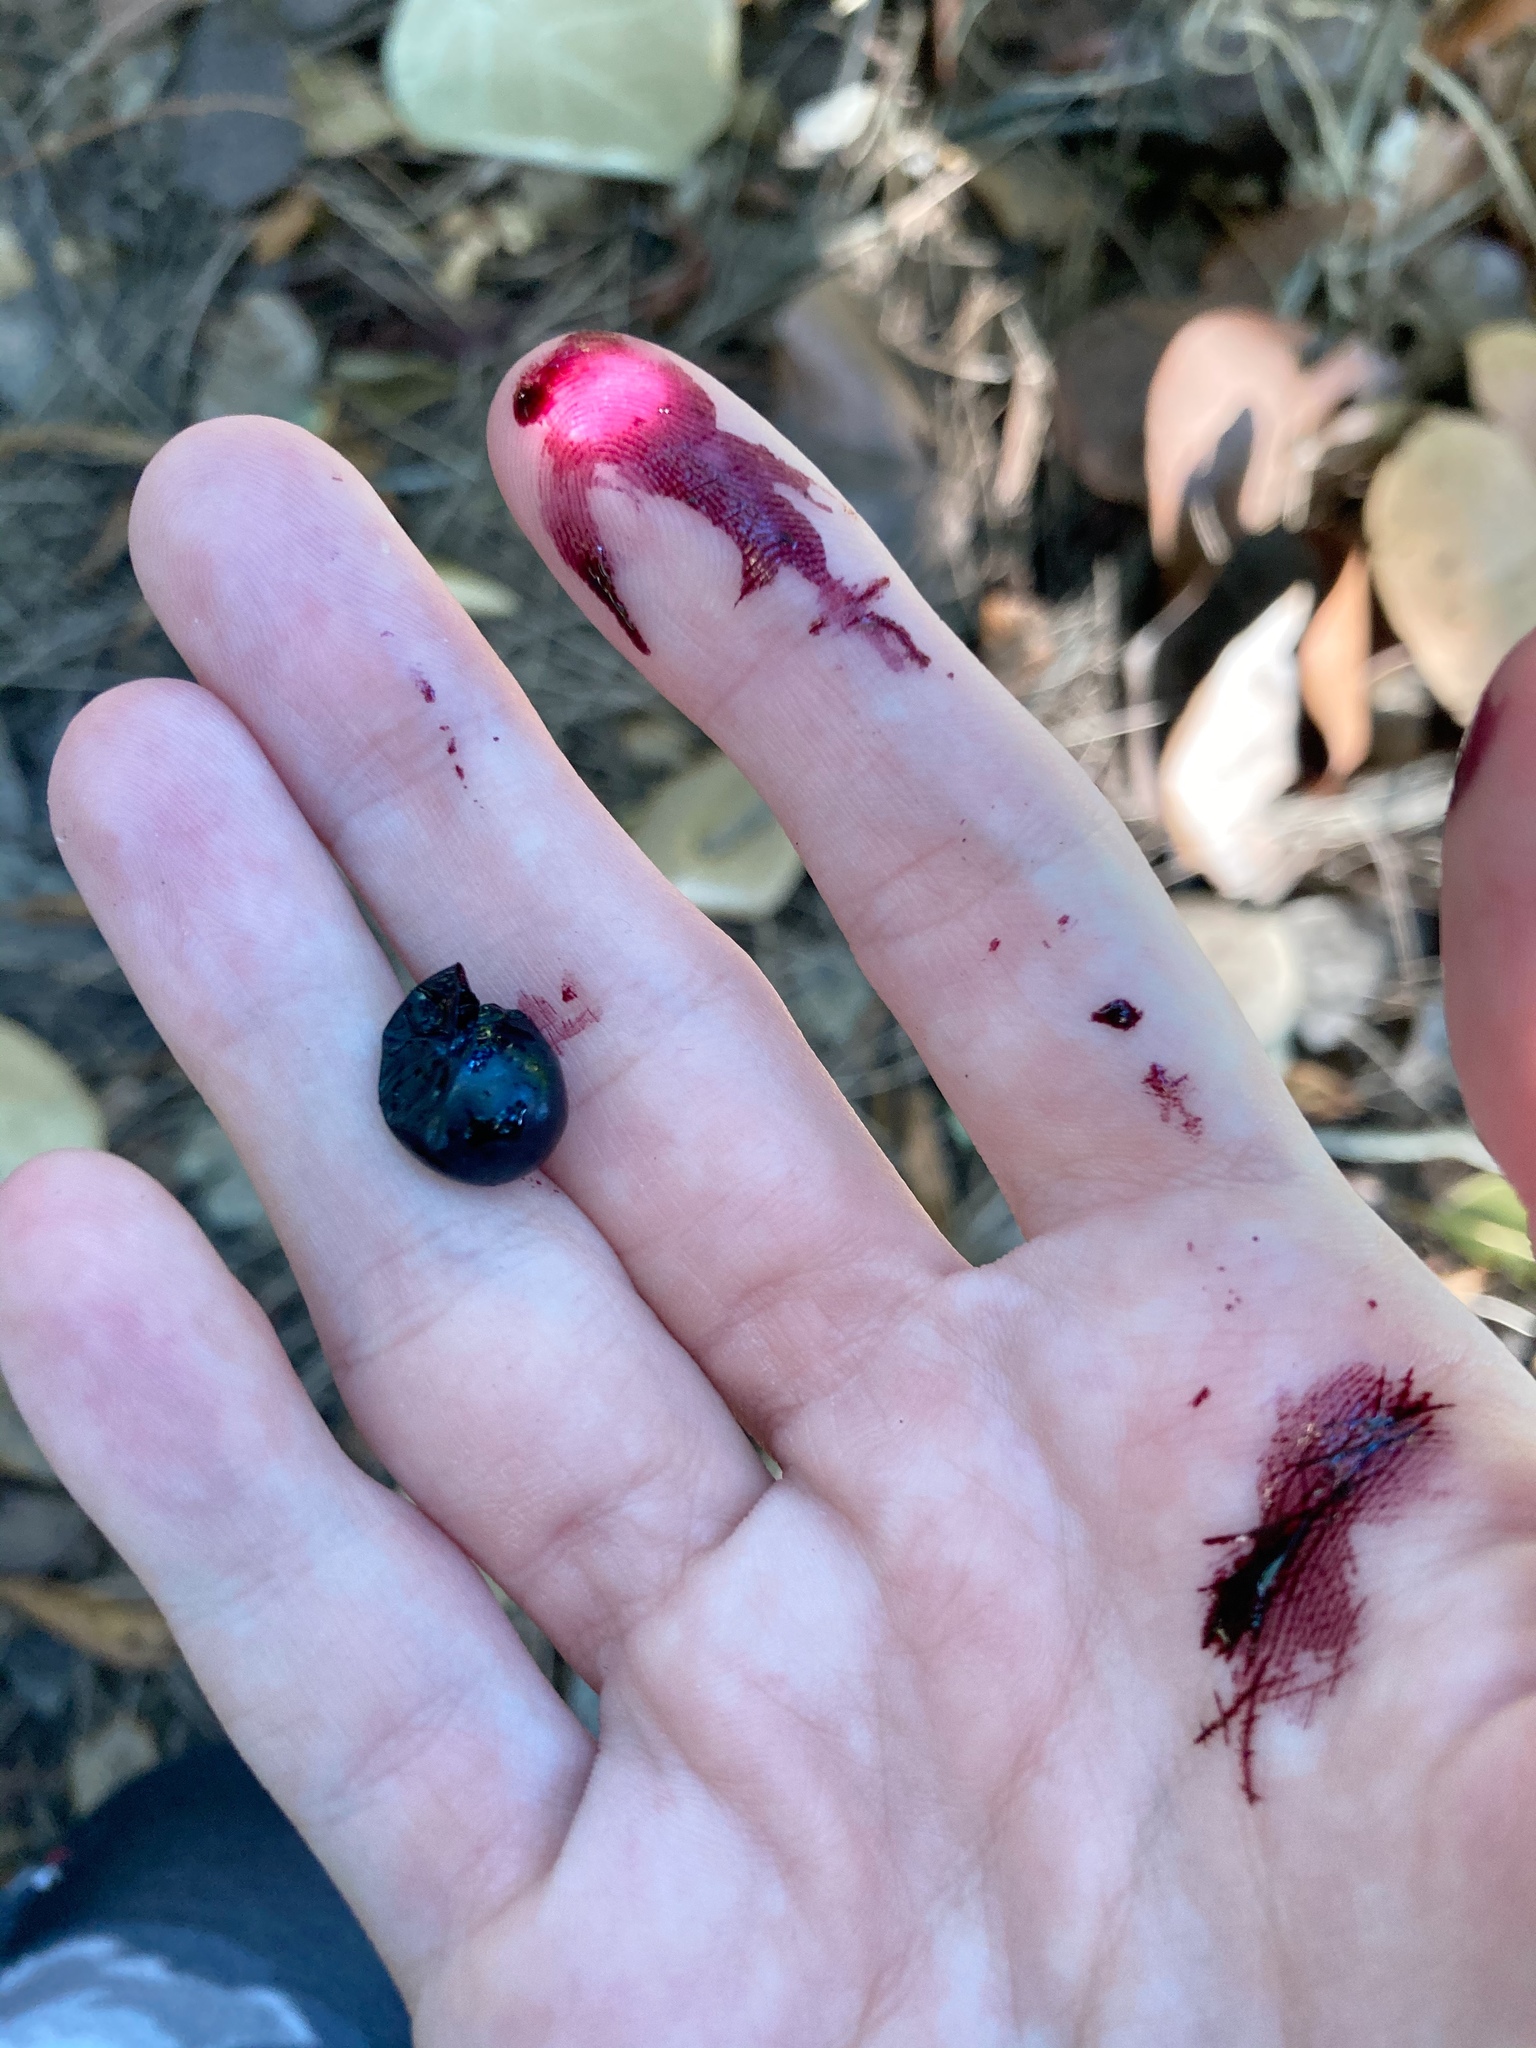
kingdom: Plantae
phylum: Tracheophyta
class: Magnoliopsida
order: Malpighiales
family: Passifloraceae
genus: Passiflora
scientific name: Passiflora pallida
